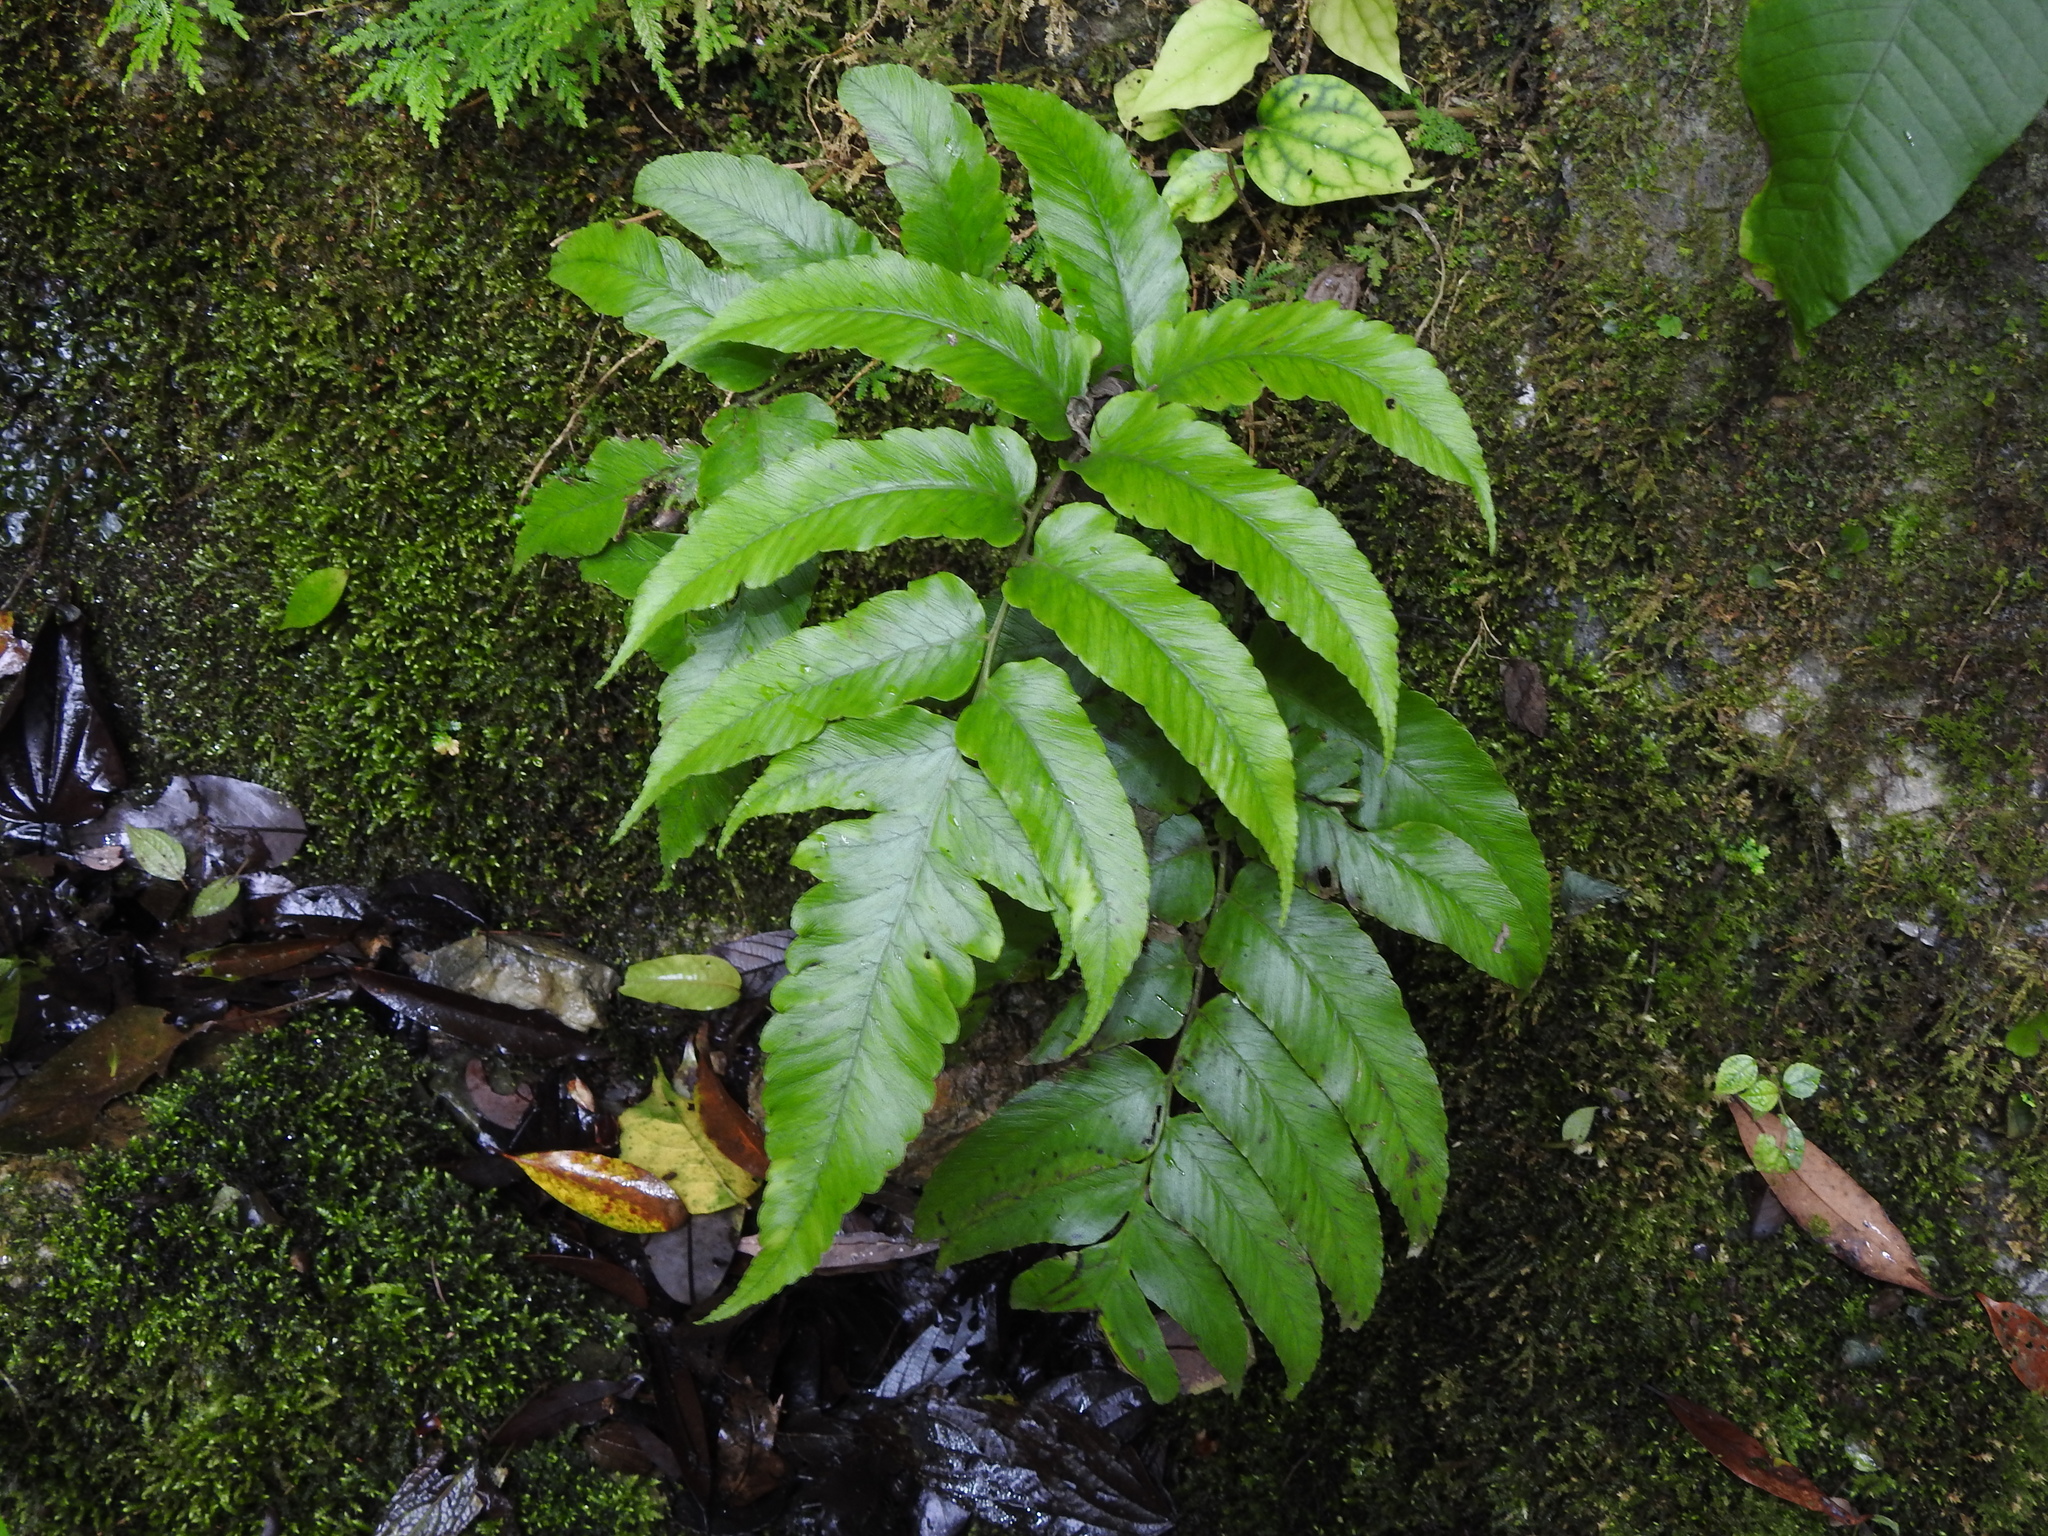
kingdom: Plantae
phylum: Tracheophyta
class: Polypodiopsida
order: Polypodiales
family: Athyriaceae
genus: Diplazium
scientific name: Diplazium megaphyllum
